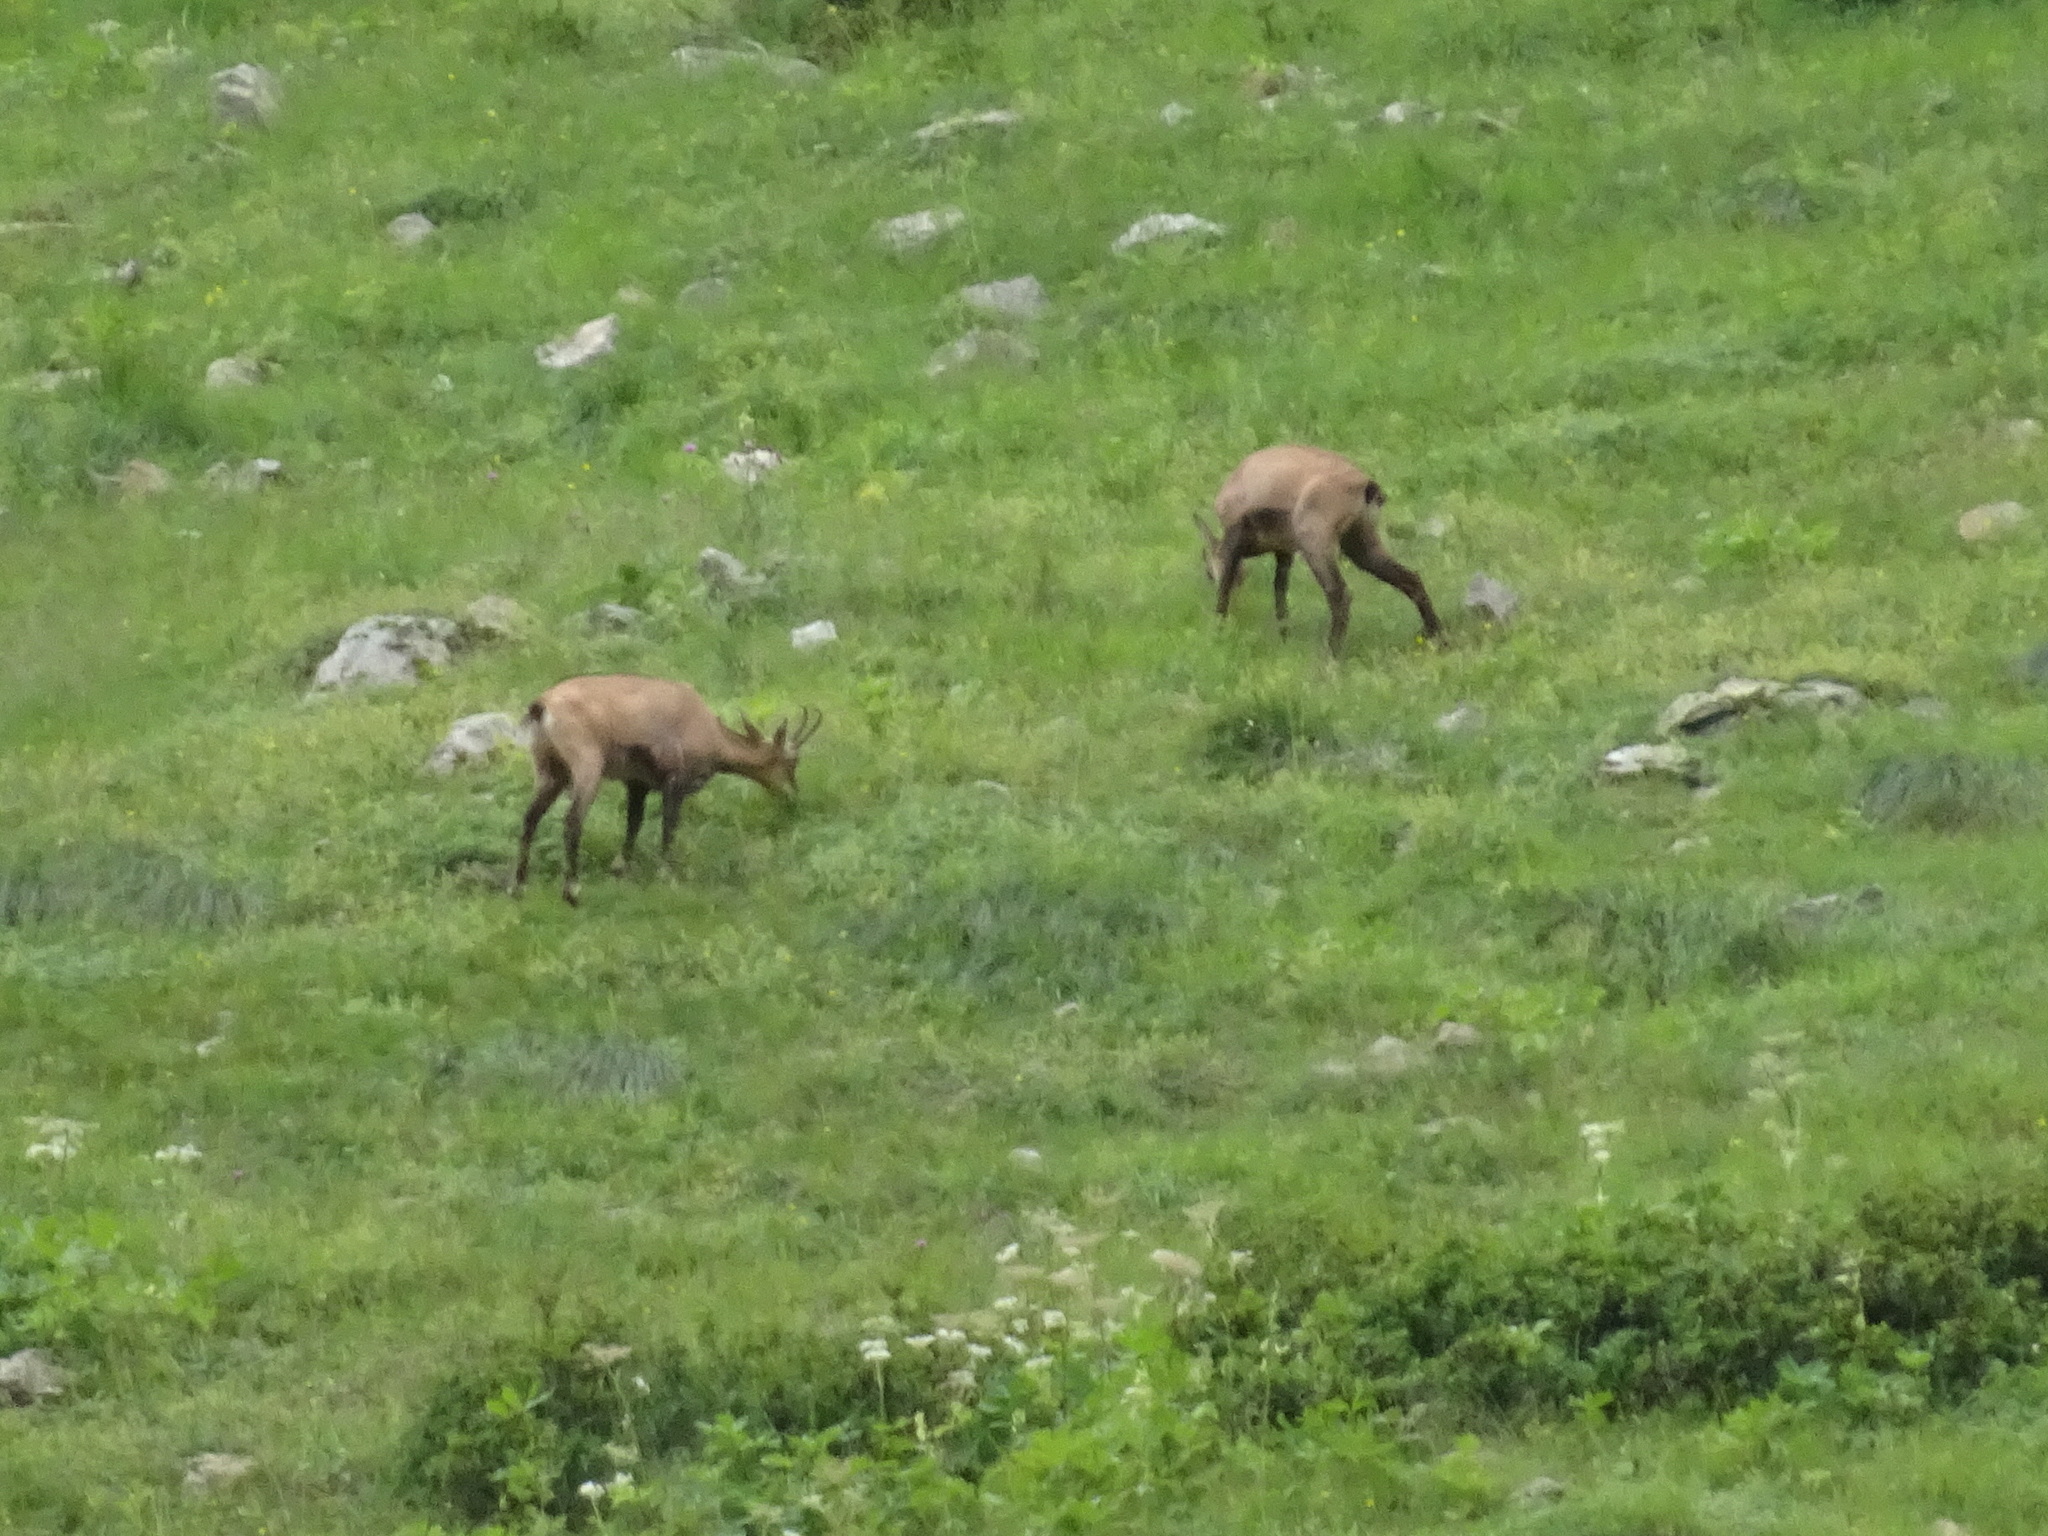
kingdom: Animalia
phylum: Chordata
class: Mammalia
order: Artiodactyla
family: Bovidae
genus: Rupicapra
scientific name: Rupicapra rupicapra
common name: Chamois
